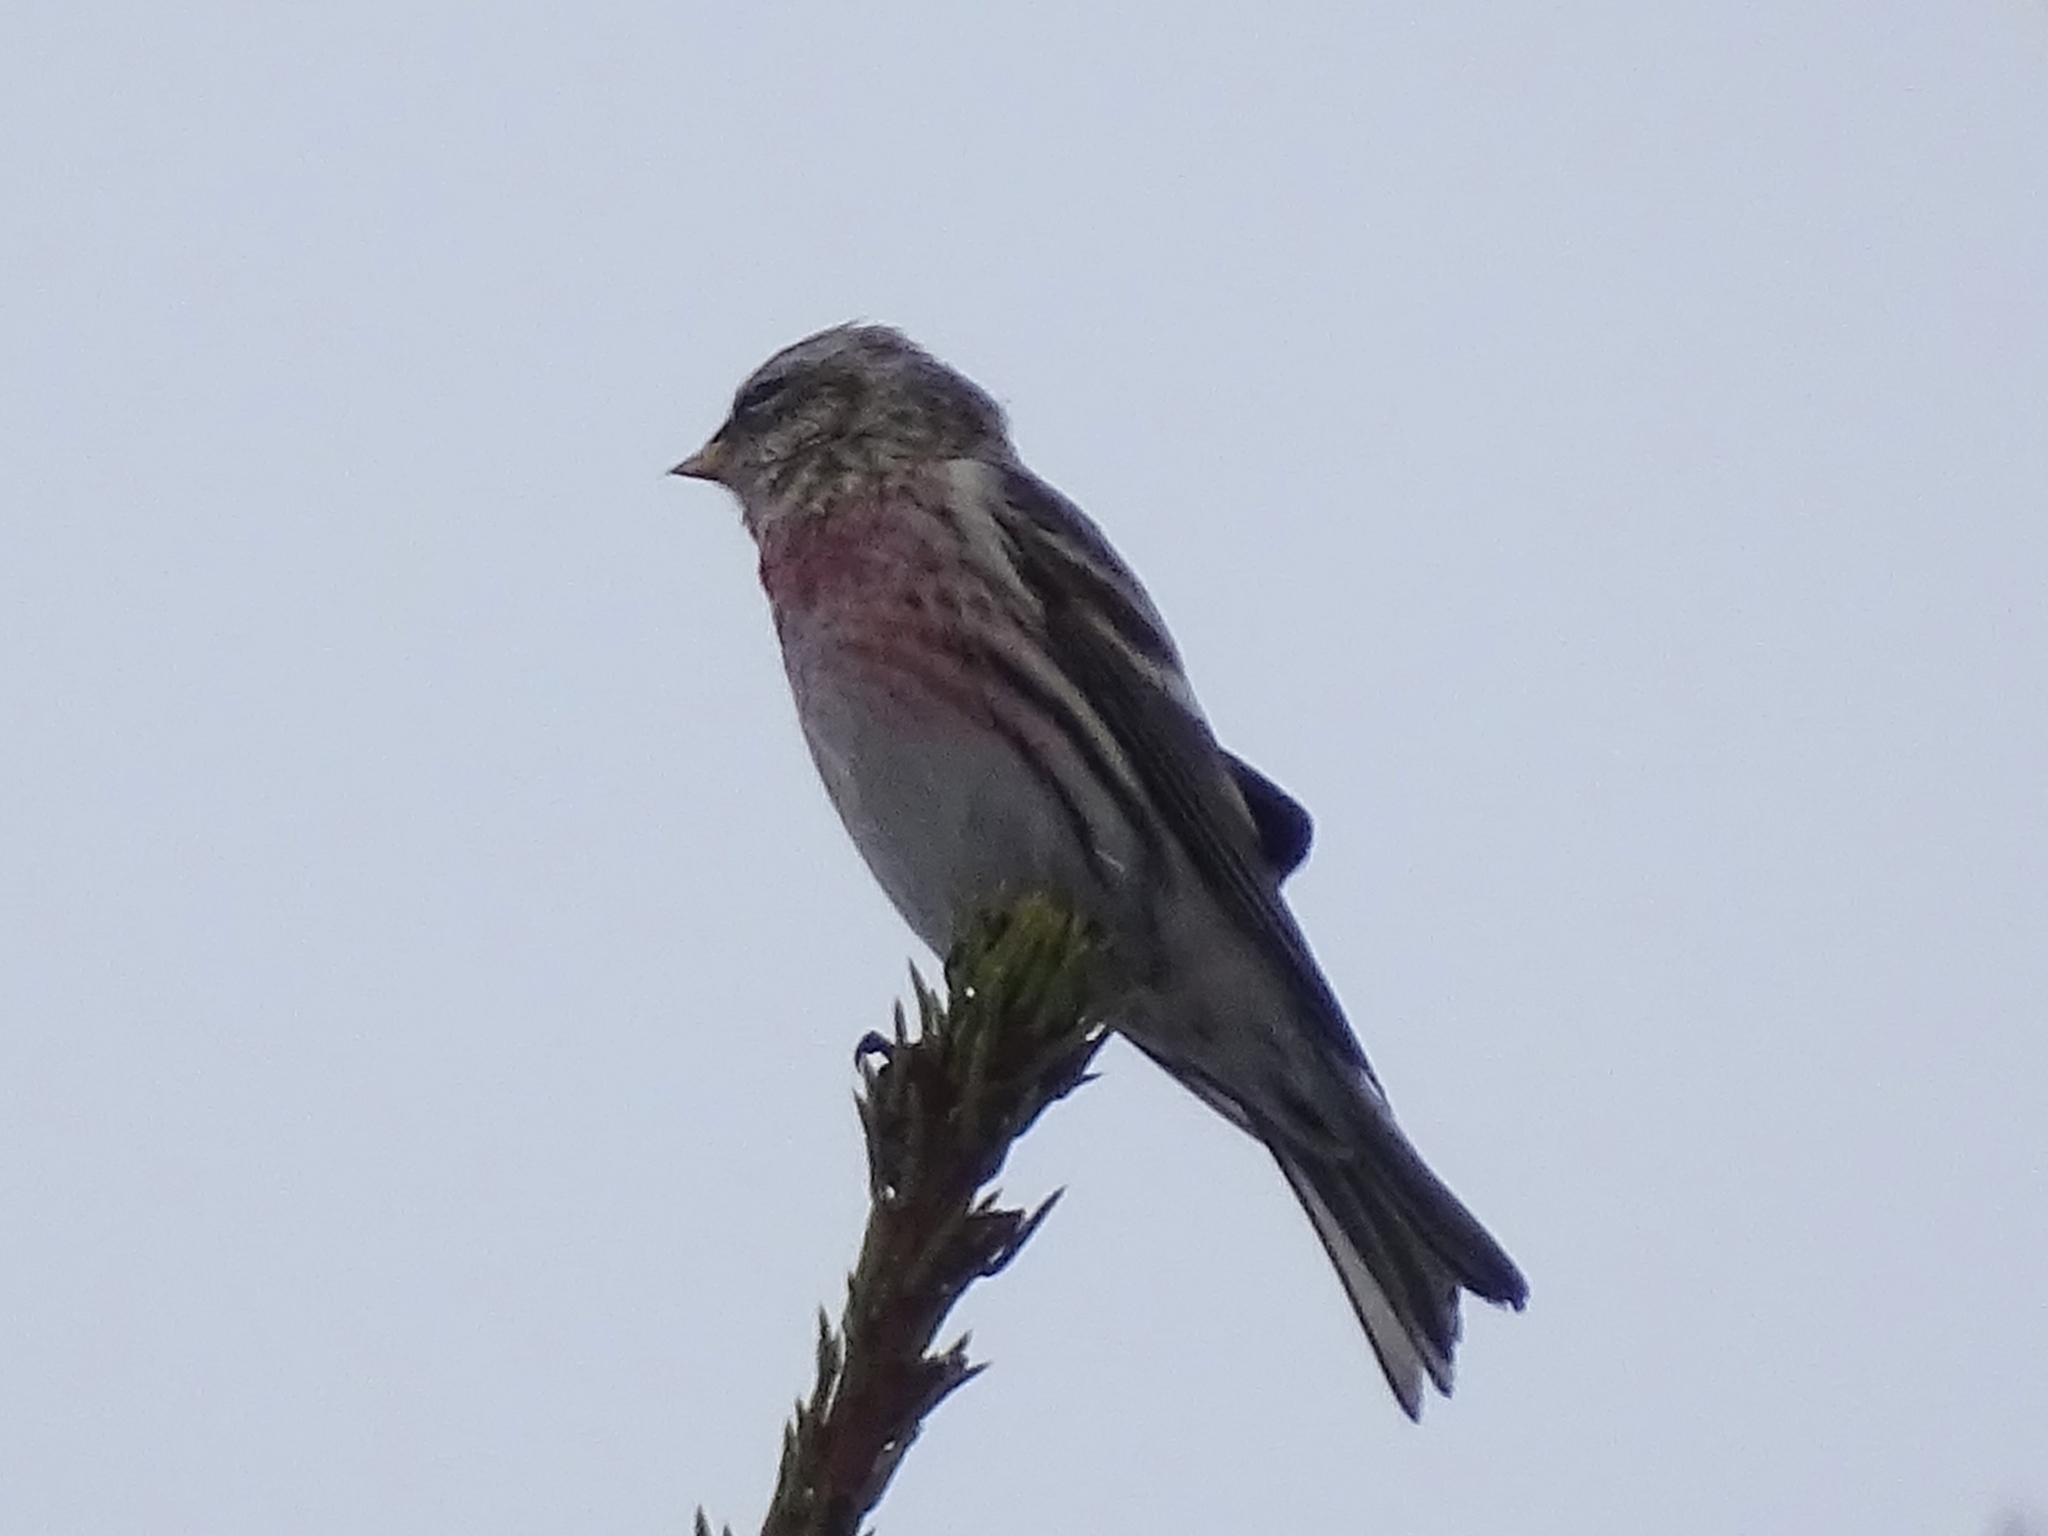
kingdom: Animalia
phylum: Chordata
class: Aves
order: Passeriformes
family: Fringillidae
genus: Acanthis
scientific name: Acanthis flammea
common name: Common redpoll
